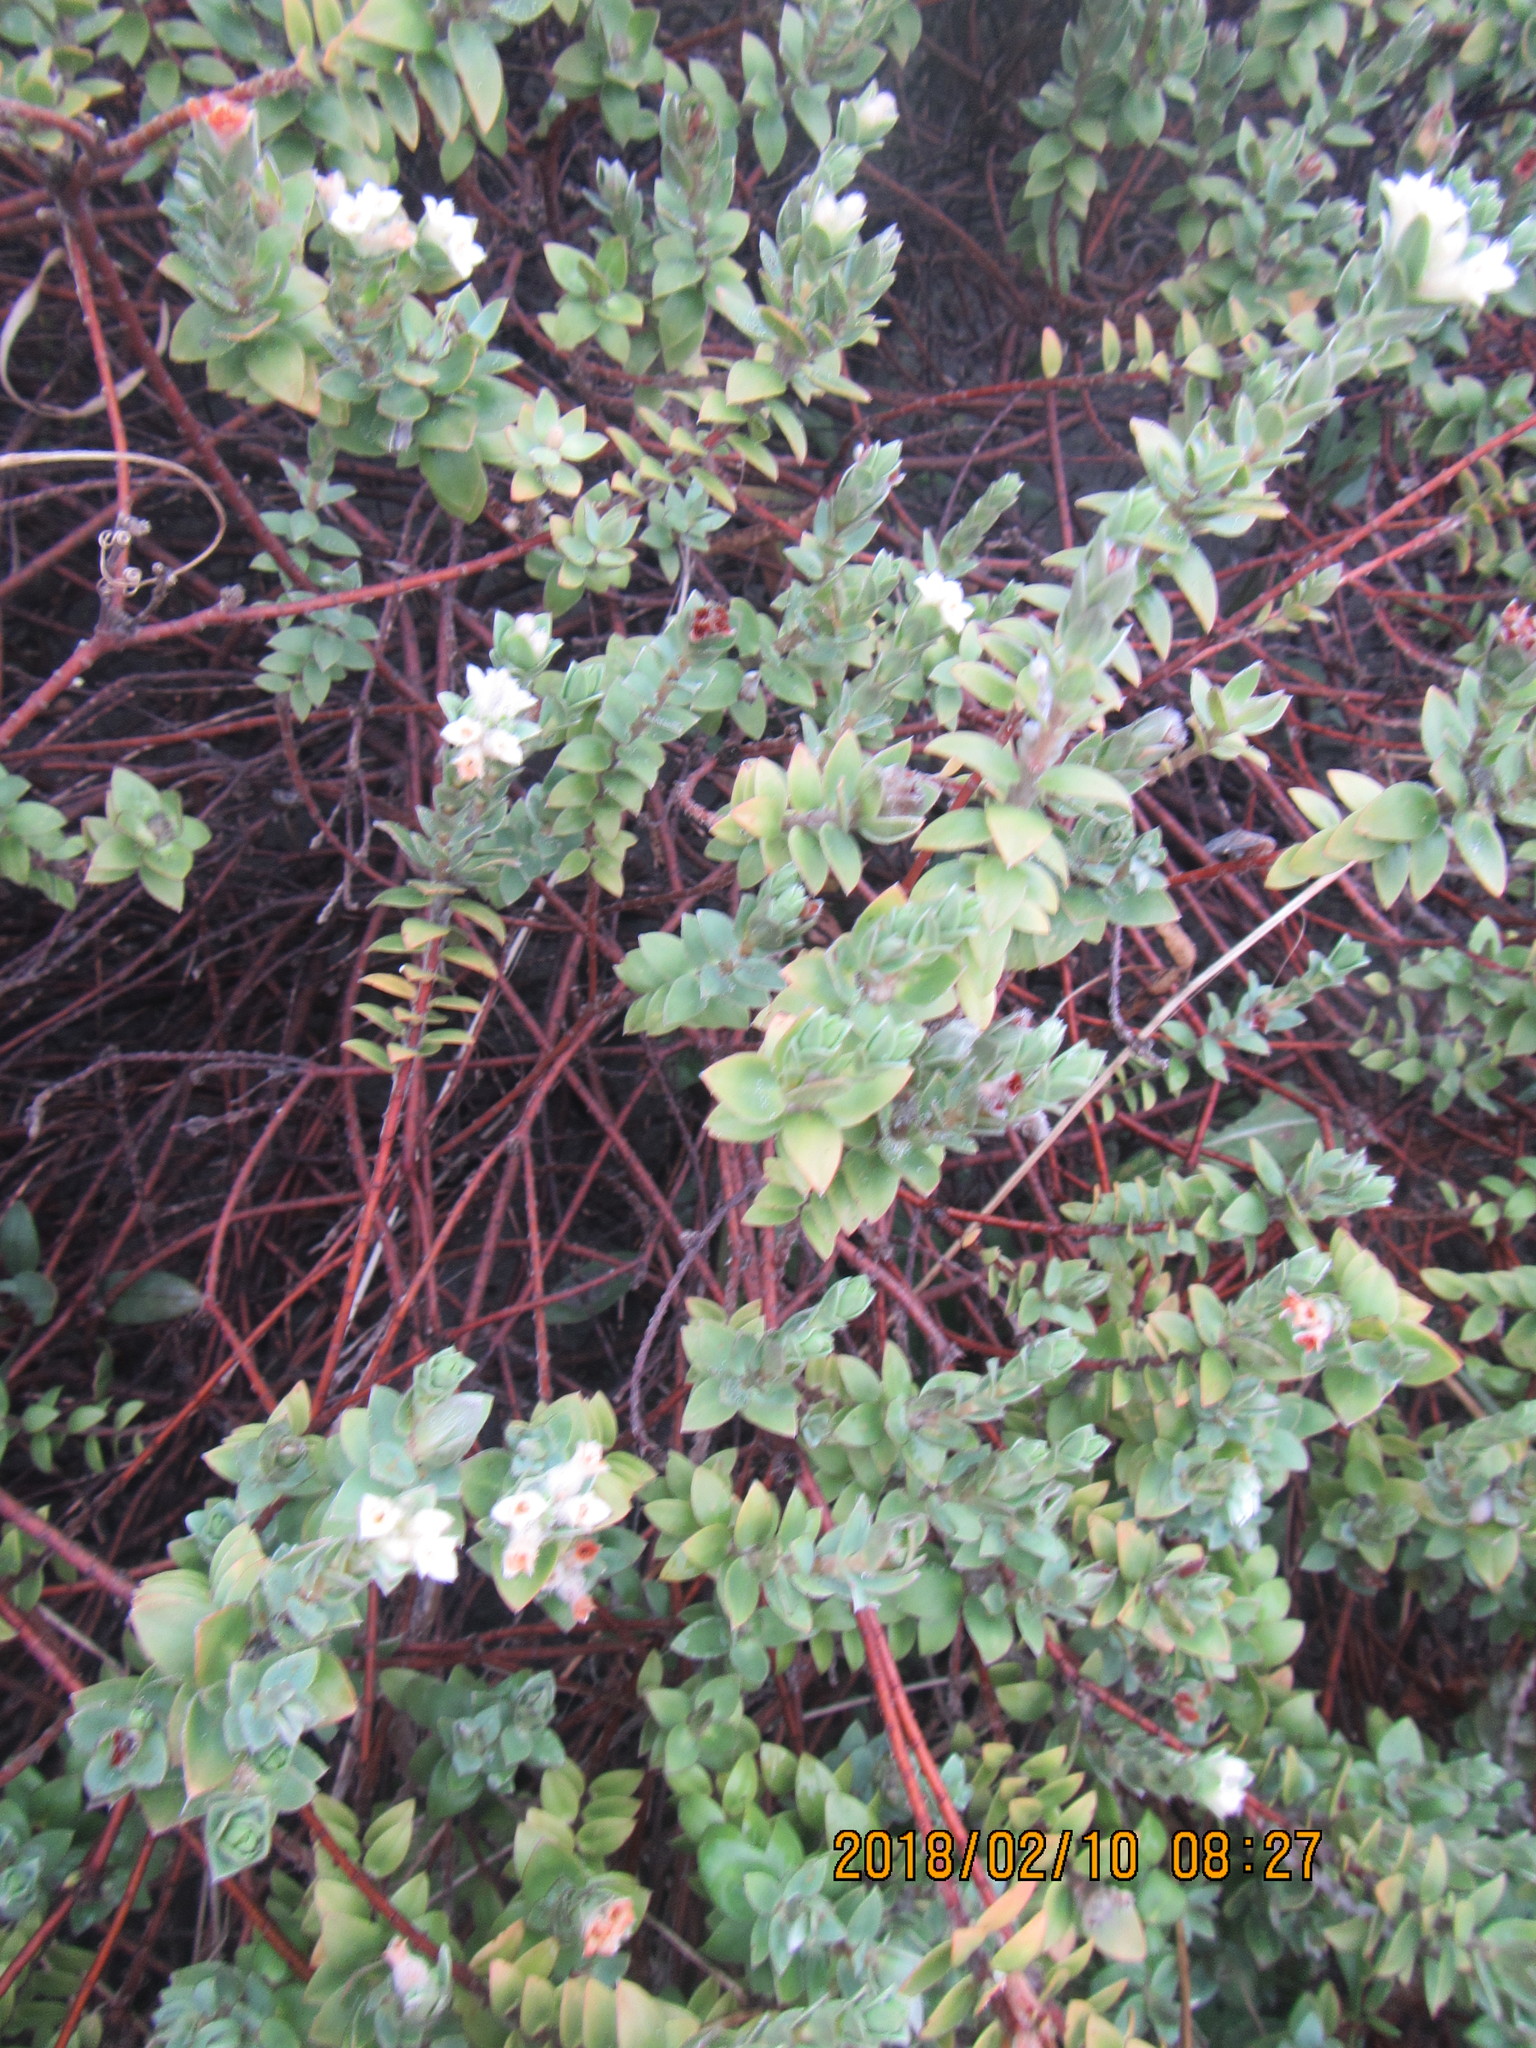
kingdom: Plantae
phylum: Tracheophyta
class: Magnoliopsida
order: Malvales
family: Thymelaeaceae
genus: Pimelea
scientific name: Pimelea villosa
